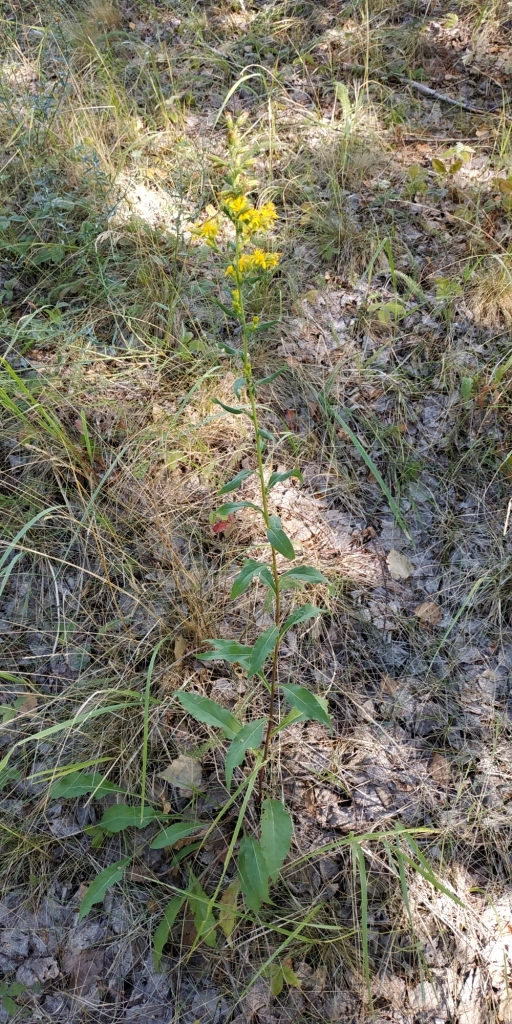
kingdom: Plantae
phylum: Tracheophyta
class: Magnoliopsida
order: Asterales
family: Asteraceae
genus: Solidago
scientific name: Solidago virgaurea
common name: Goldenrod
